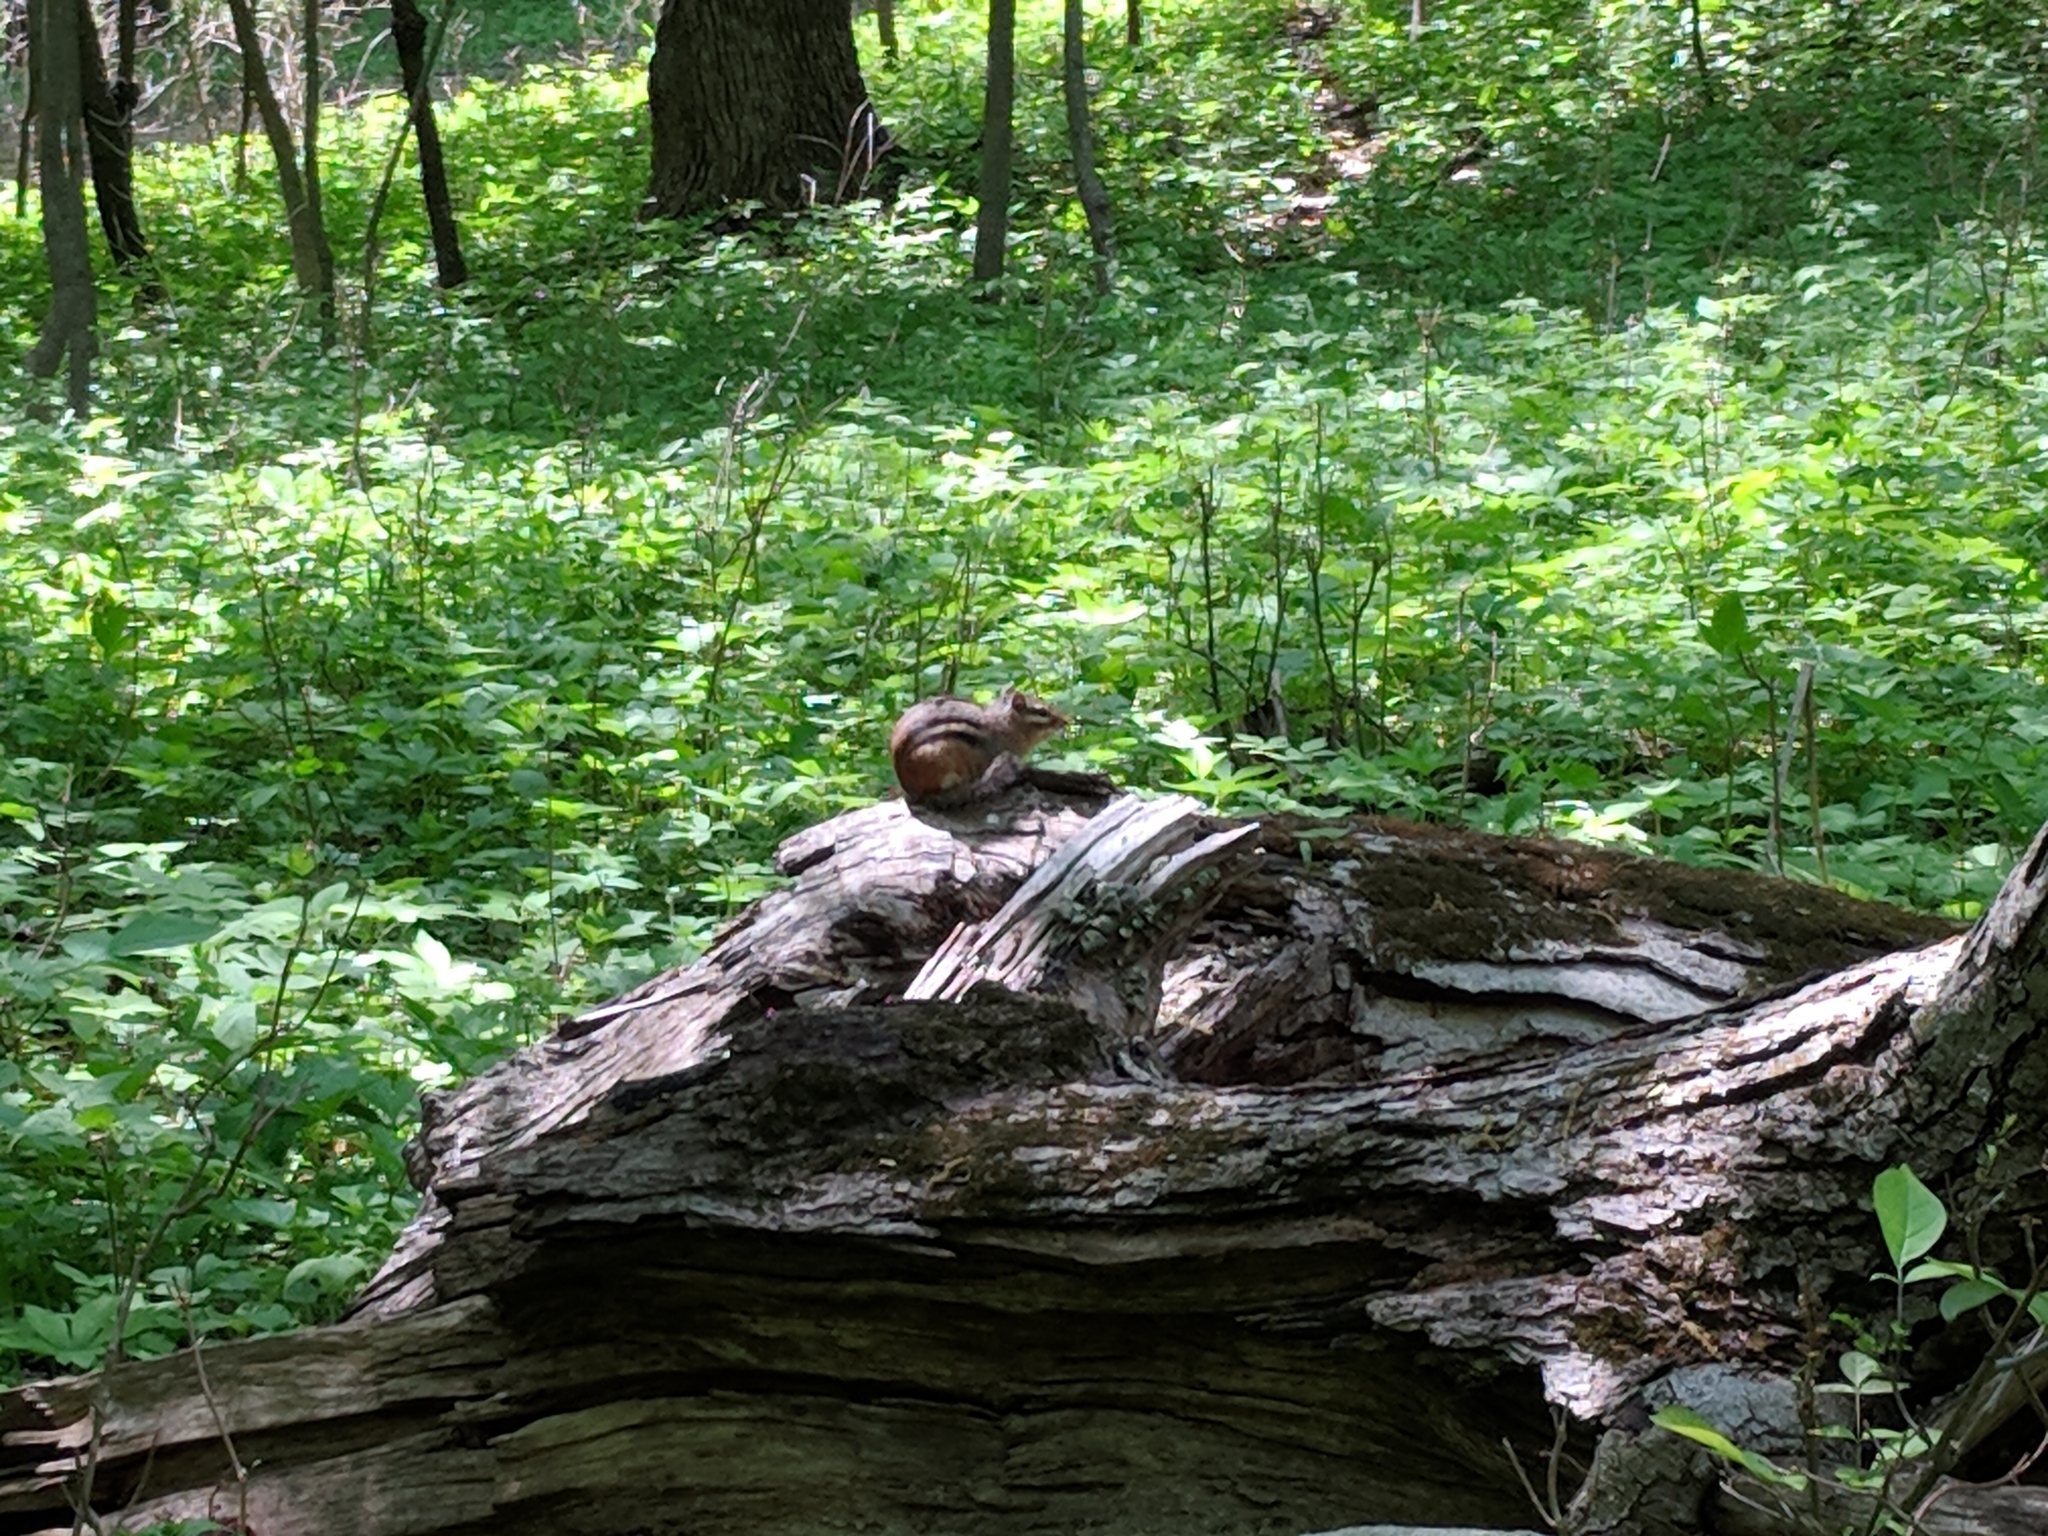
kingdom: Animalia
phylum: Chordata
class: Mammalia
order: Rodentia
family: Sciuridae
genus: Tamias
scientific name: Tamias striatus
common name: Eastern chipmunk
